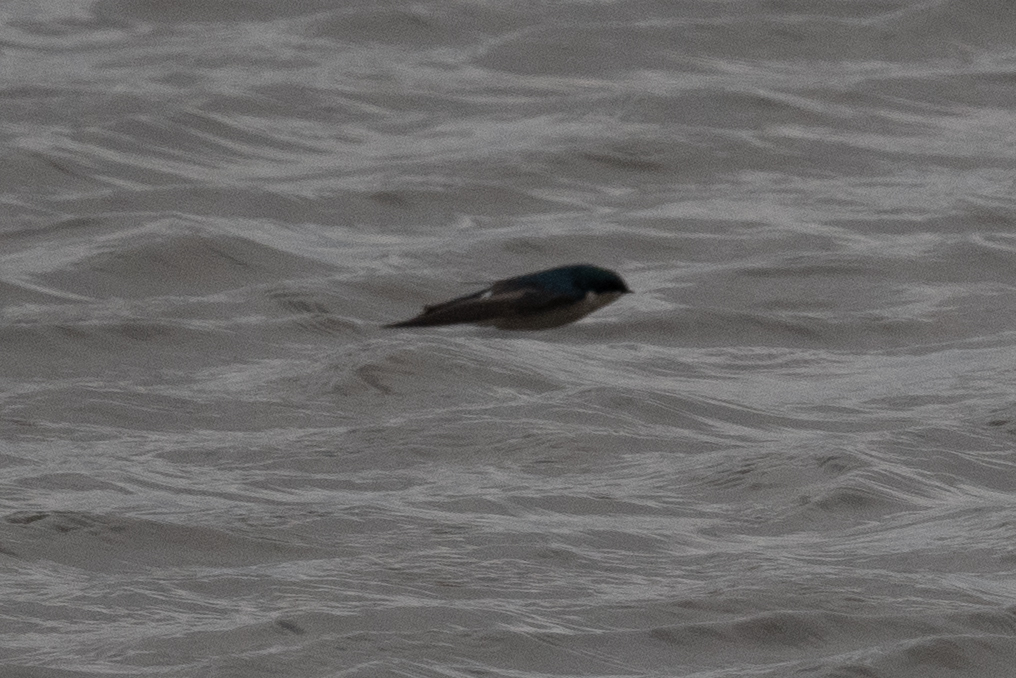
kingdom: Animalia
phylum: Chordata
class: Aves
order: Passeriformes
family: Hirundinidae
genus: Tachycineta
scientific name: Tachycineta bicolor
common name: Tree swallow
